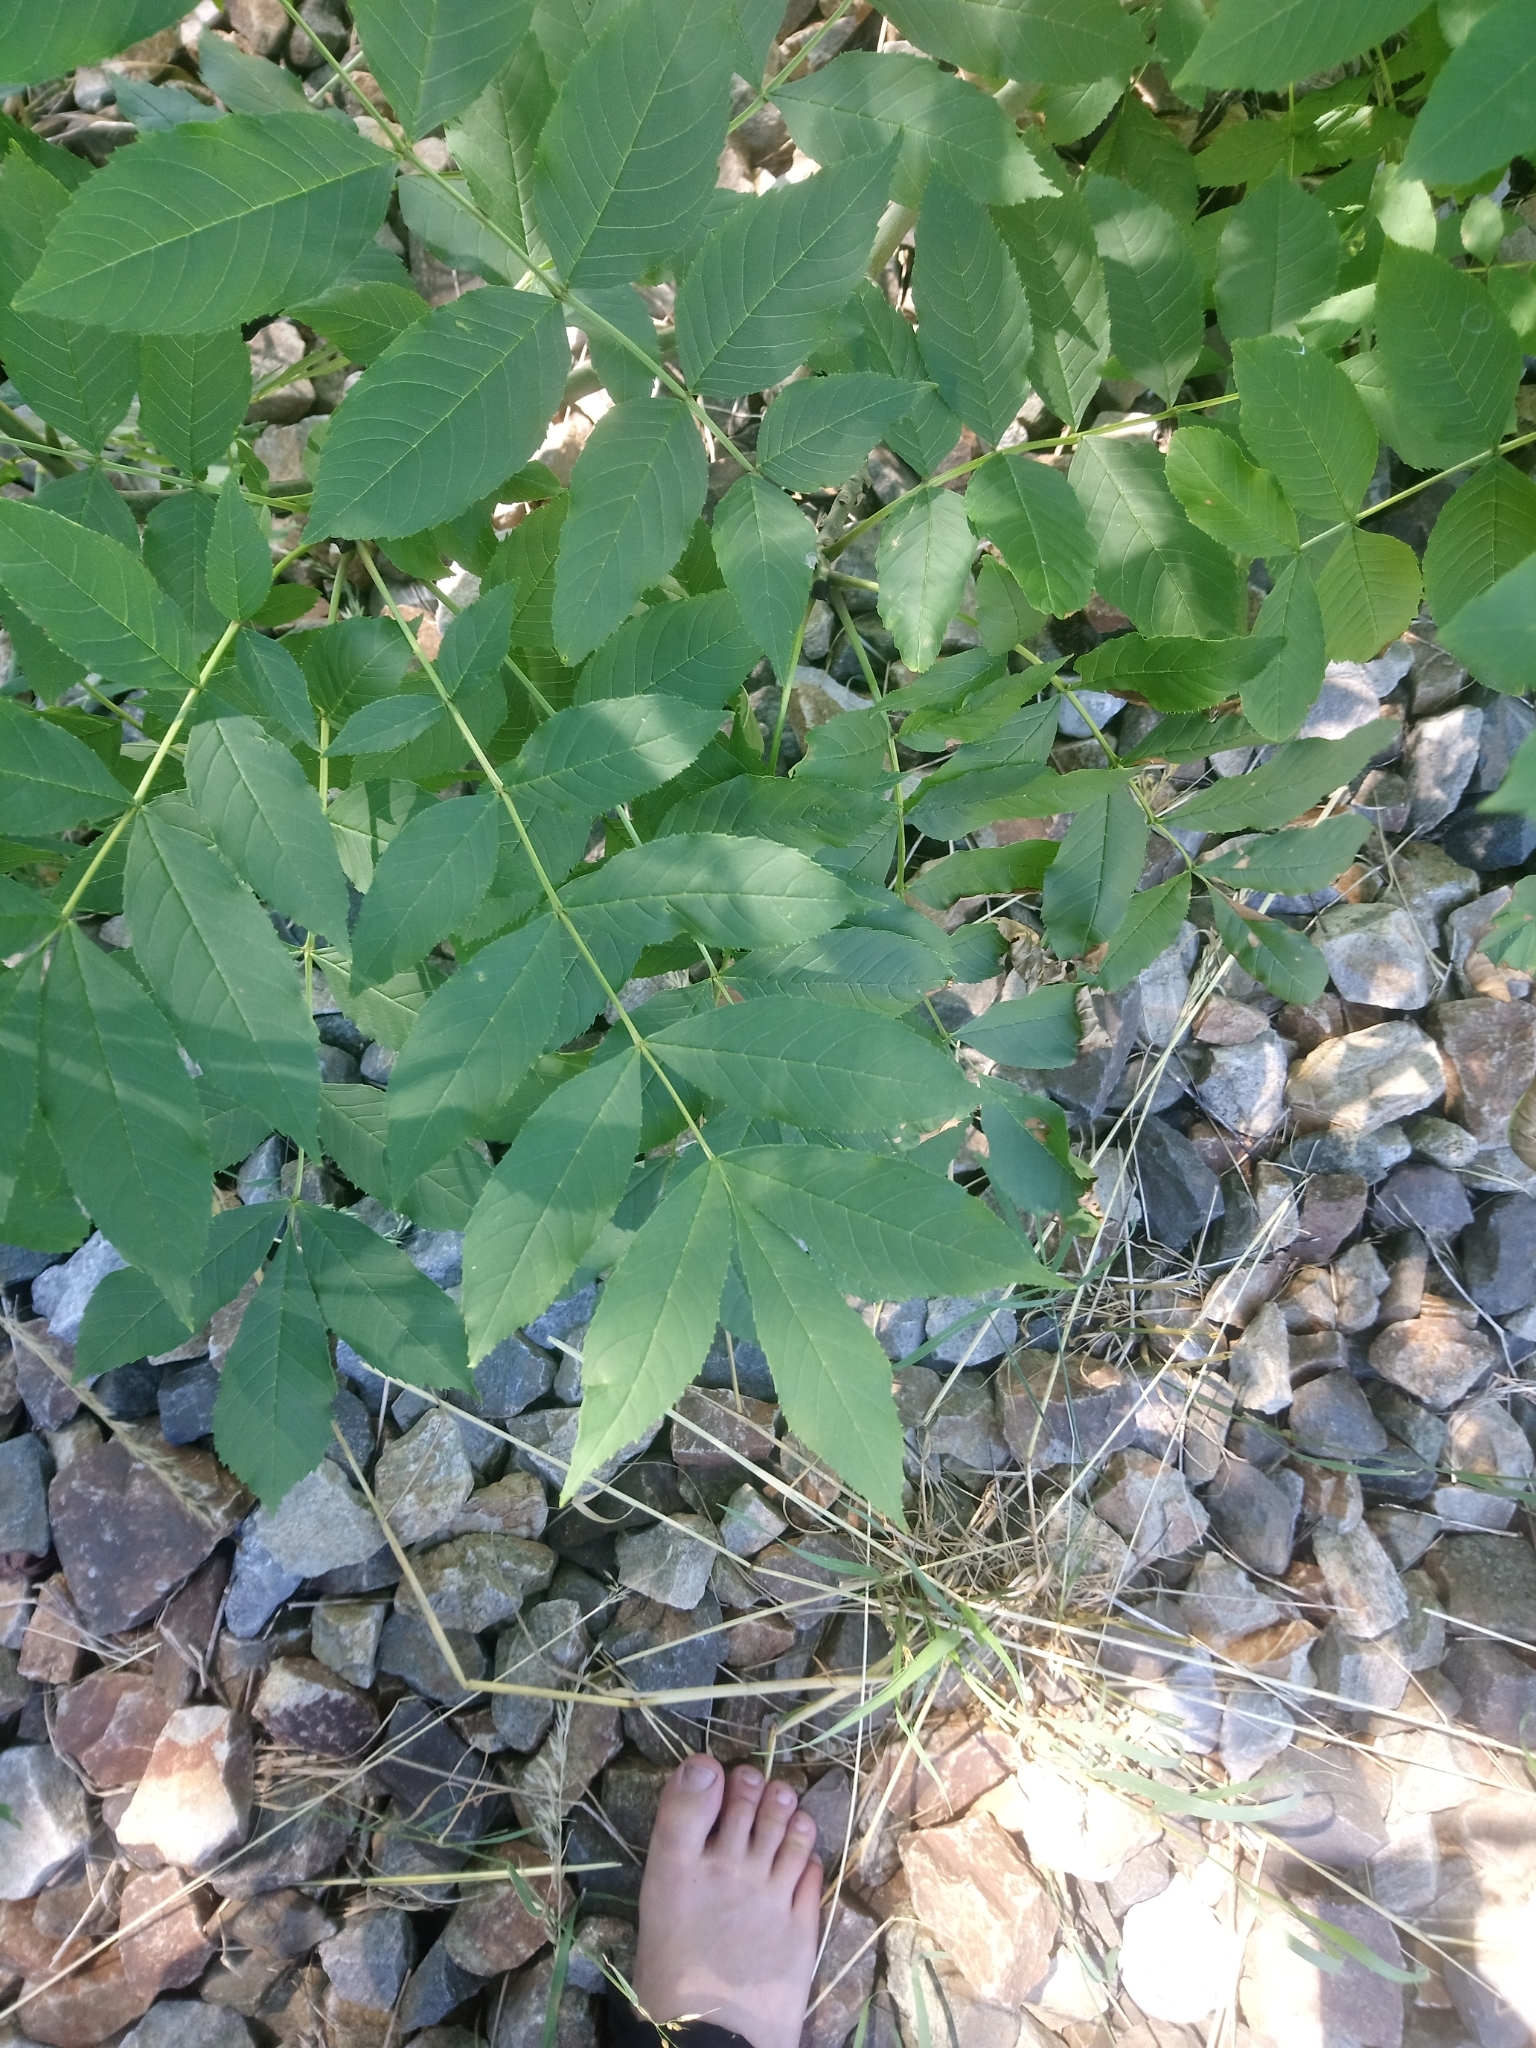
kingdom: Plantae
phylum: Tracheophyta
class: Magnoliopsida
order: Lamiales
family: Oleaceae
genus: Fraxinus
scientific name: Fraxinus excelsior
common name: European ash
